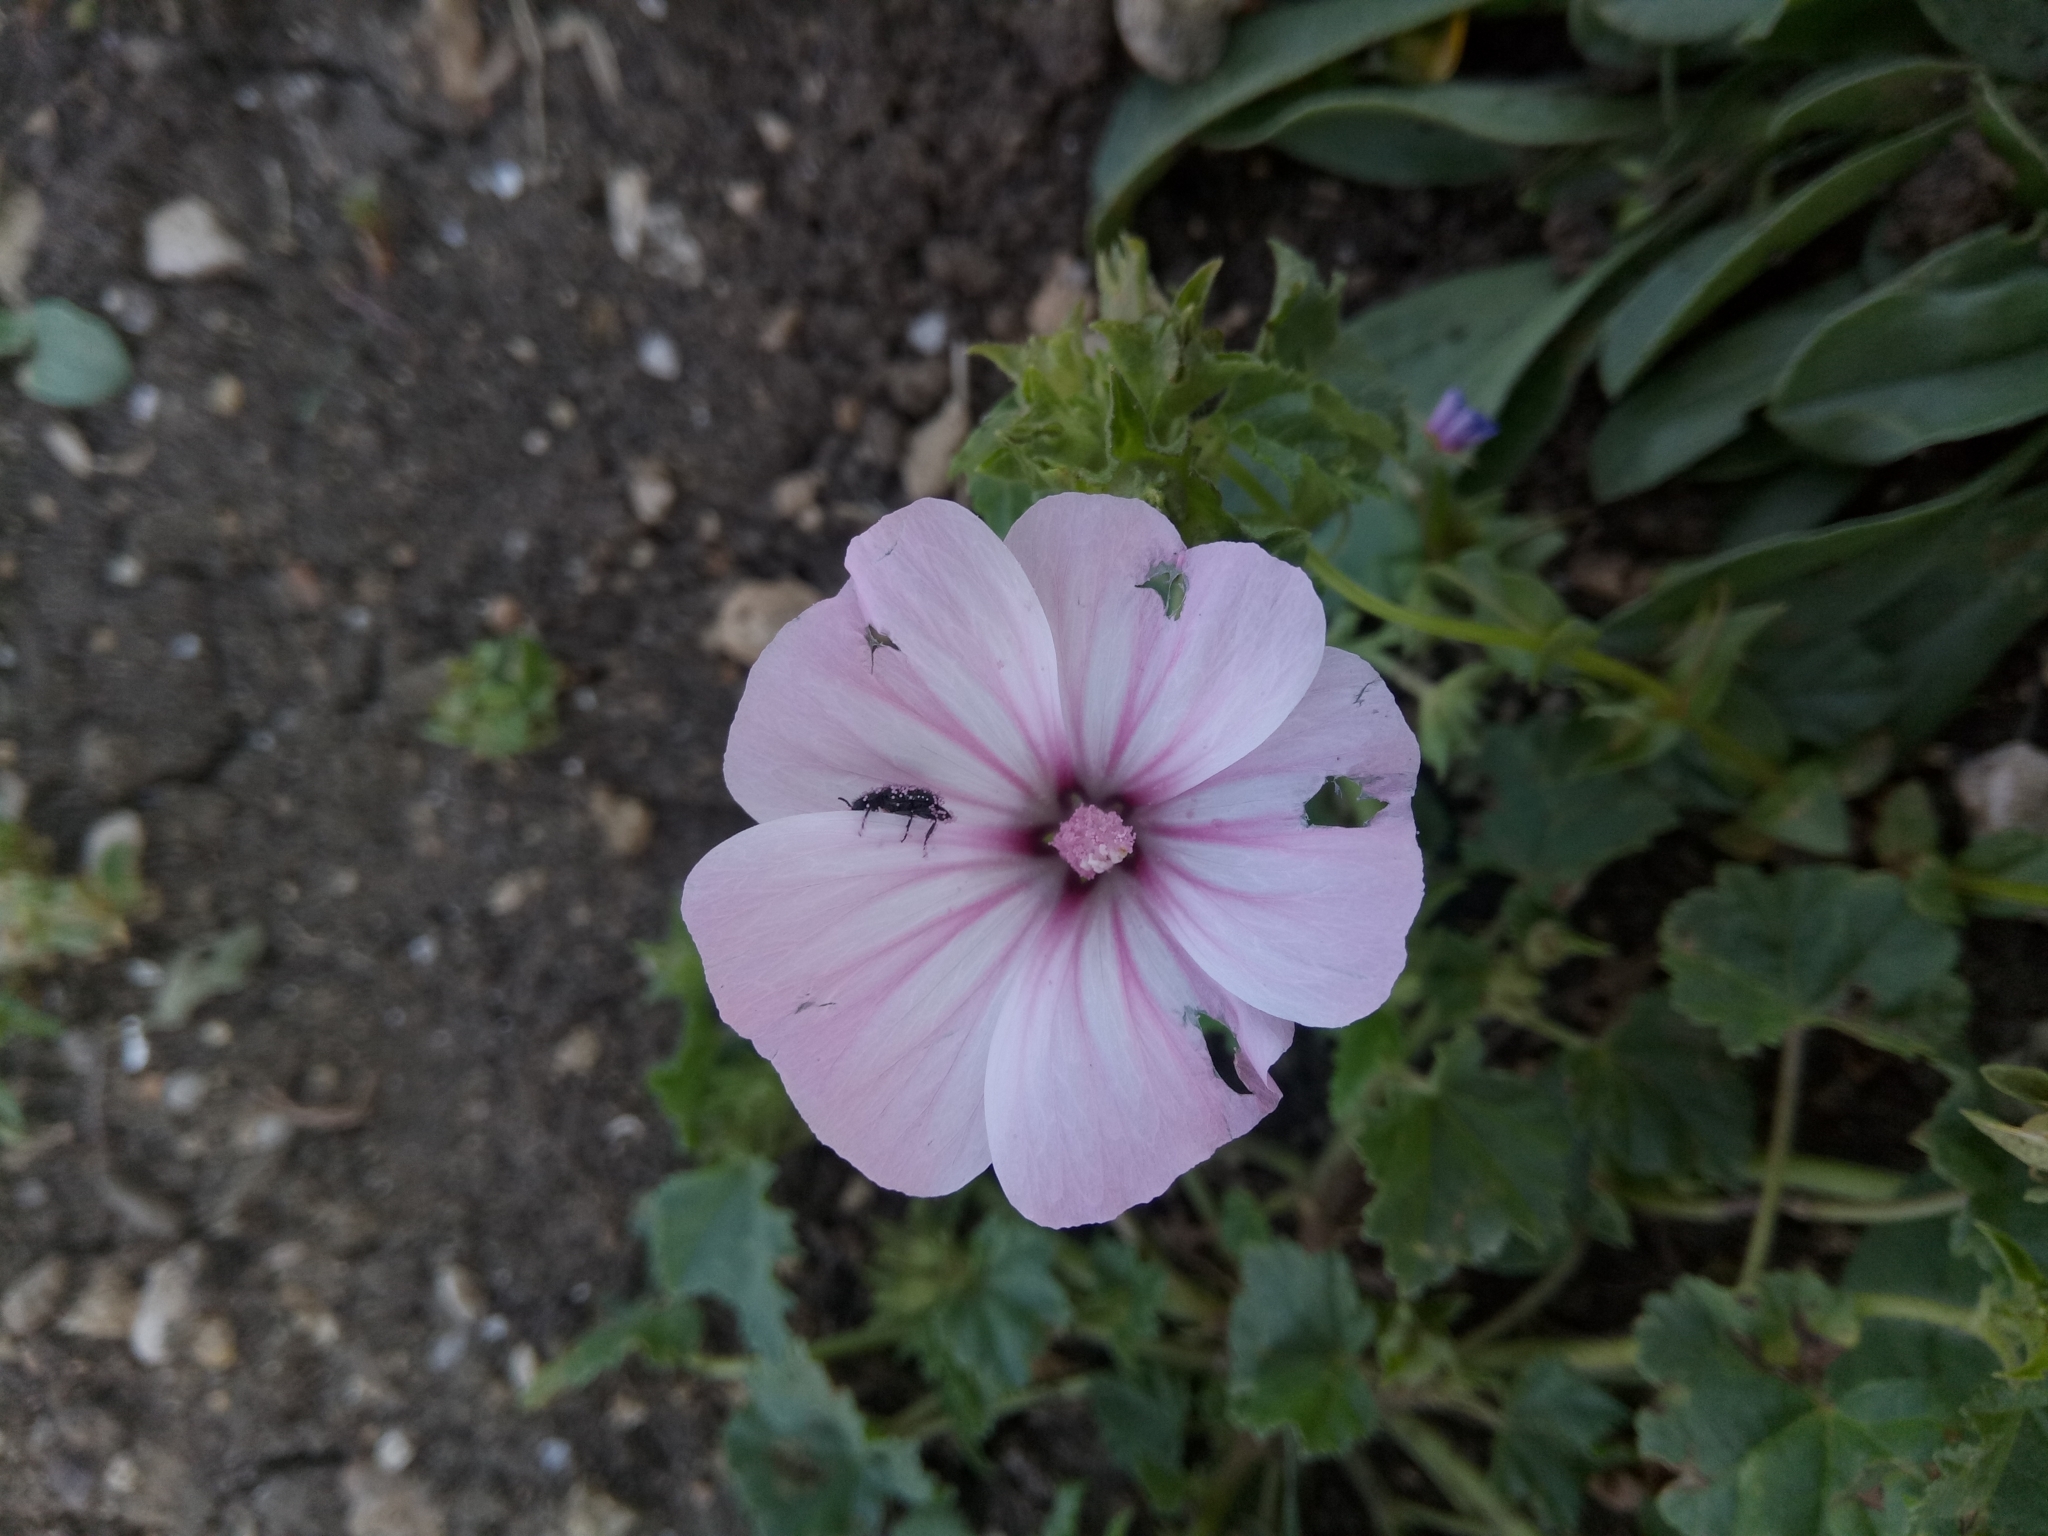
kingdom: Plantae
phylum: Tracheophyta
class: Magnoliopsida
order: Malvales
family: Malvaceae
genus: Malva
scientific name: Malva trimestris
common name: Royal mallow
